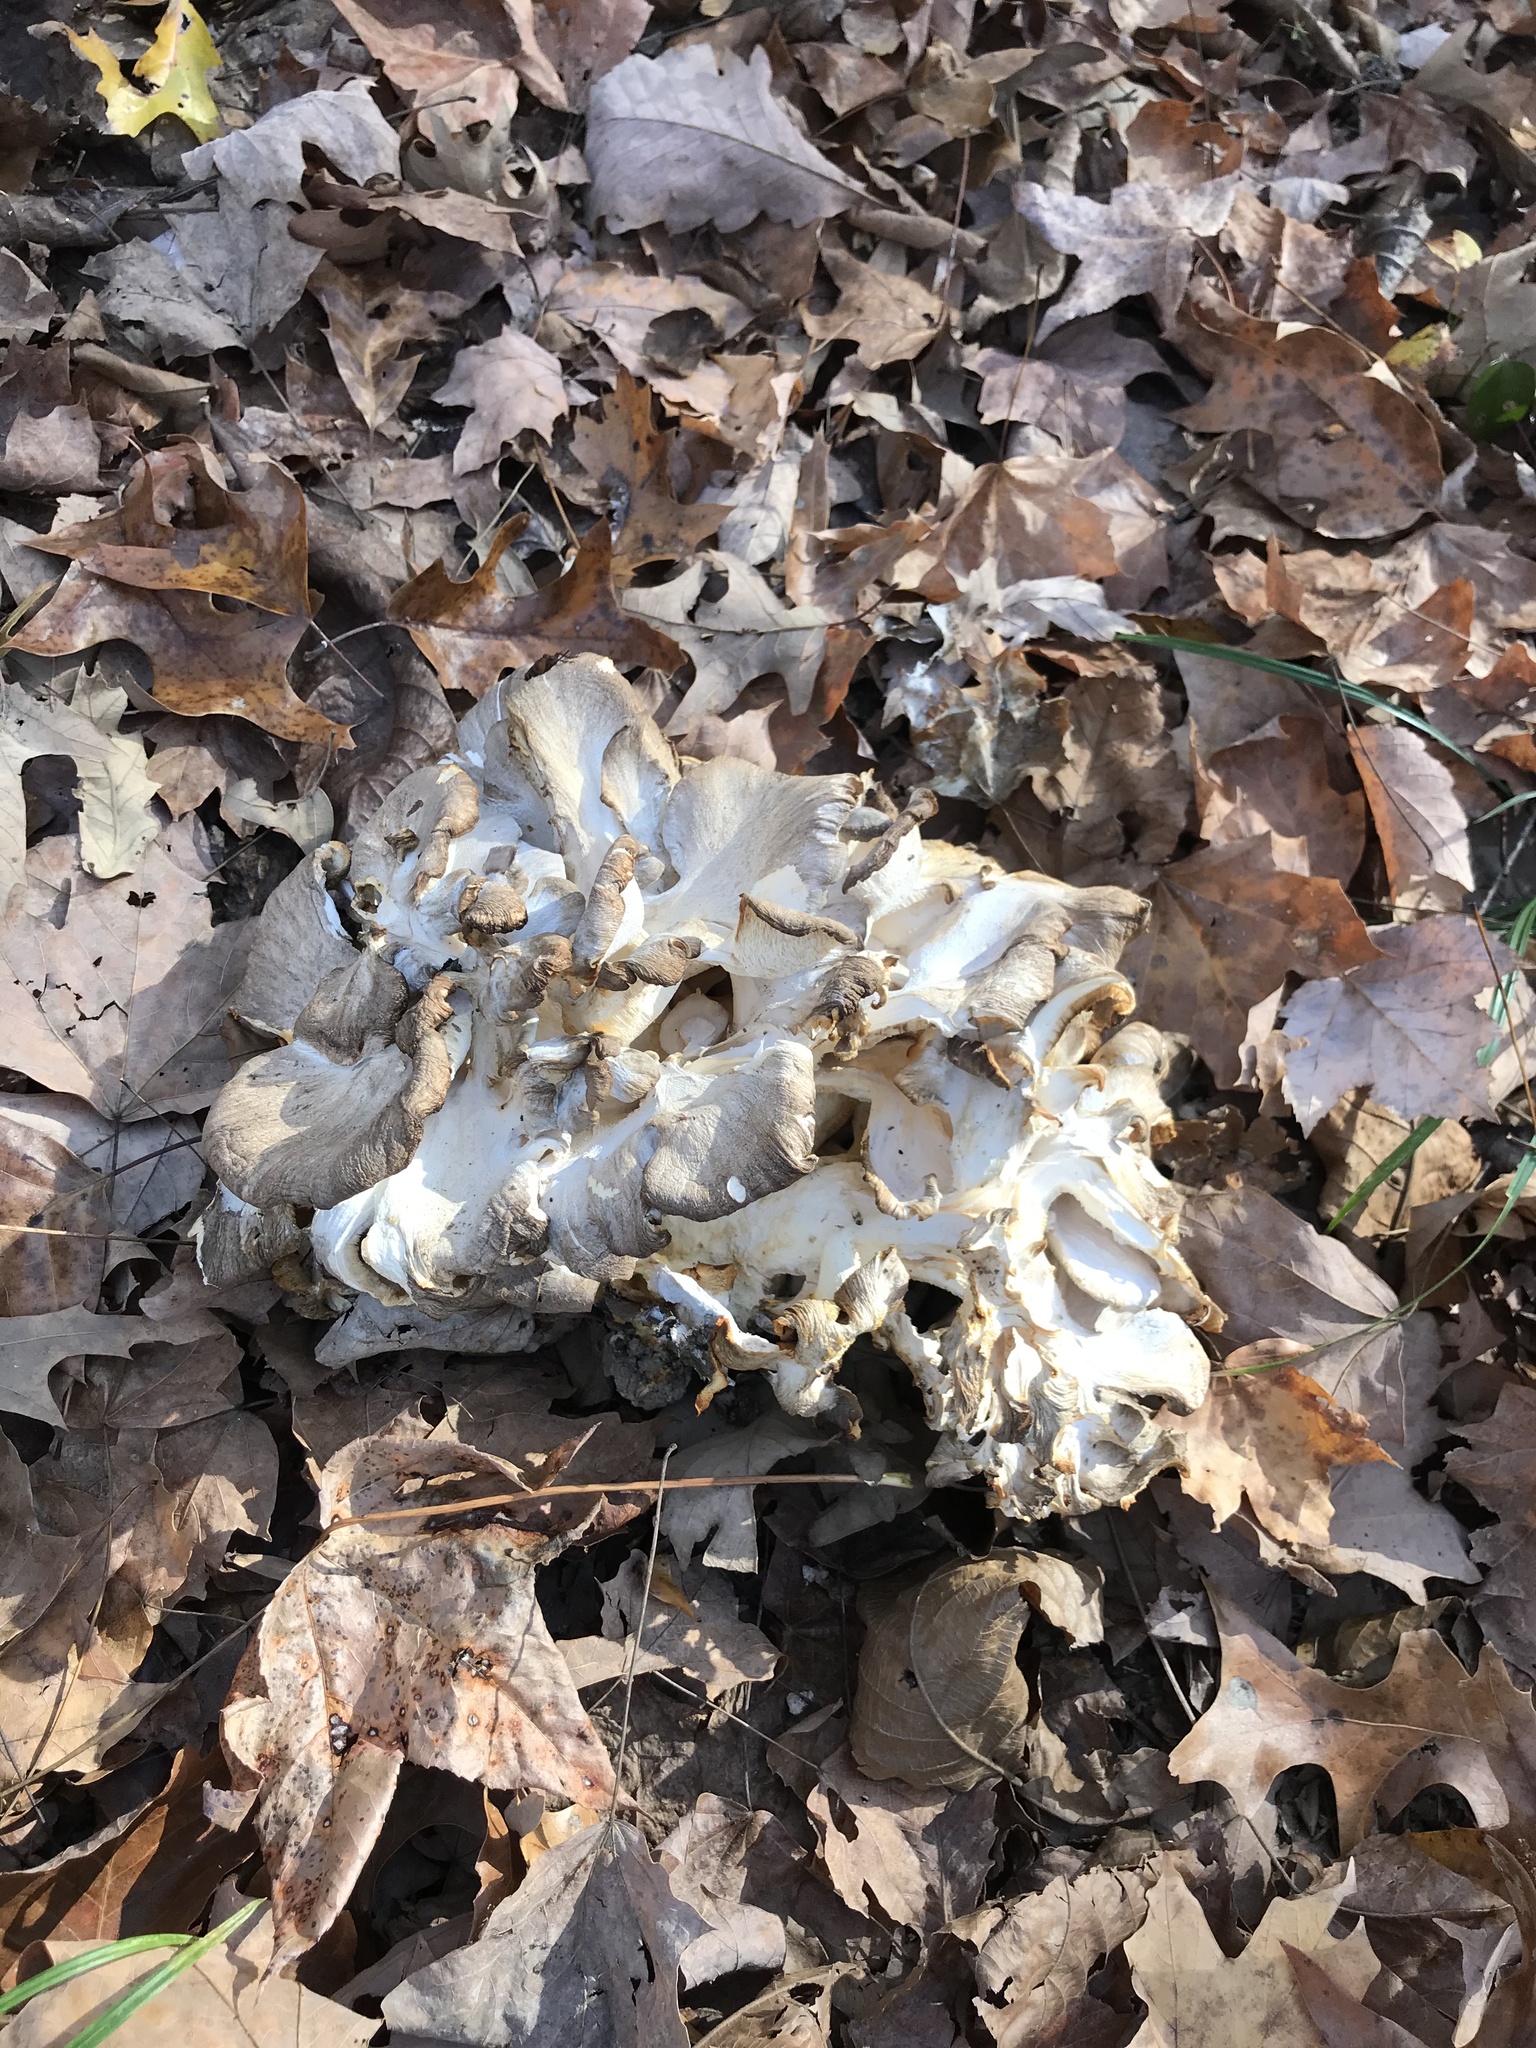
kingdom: Fungi
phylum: Basidiomycota
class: Agaricomycetes
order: Polyporales
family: Grifolaceae
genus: Grifola
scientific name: Grifola frondosa
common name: Hen of the woods
